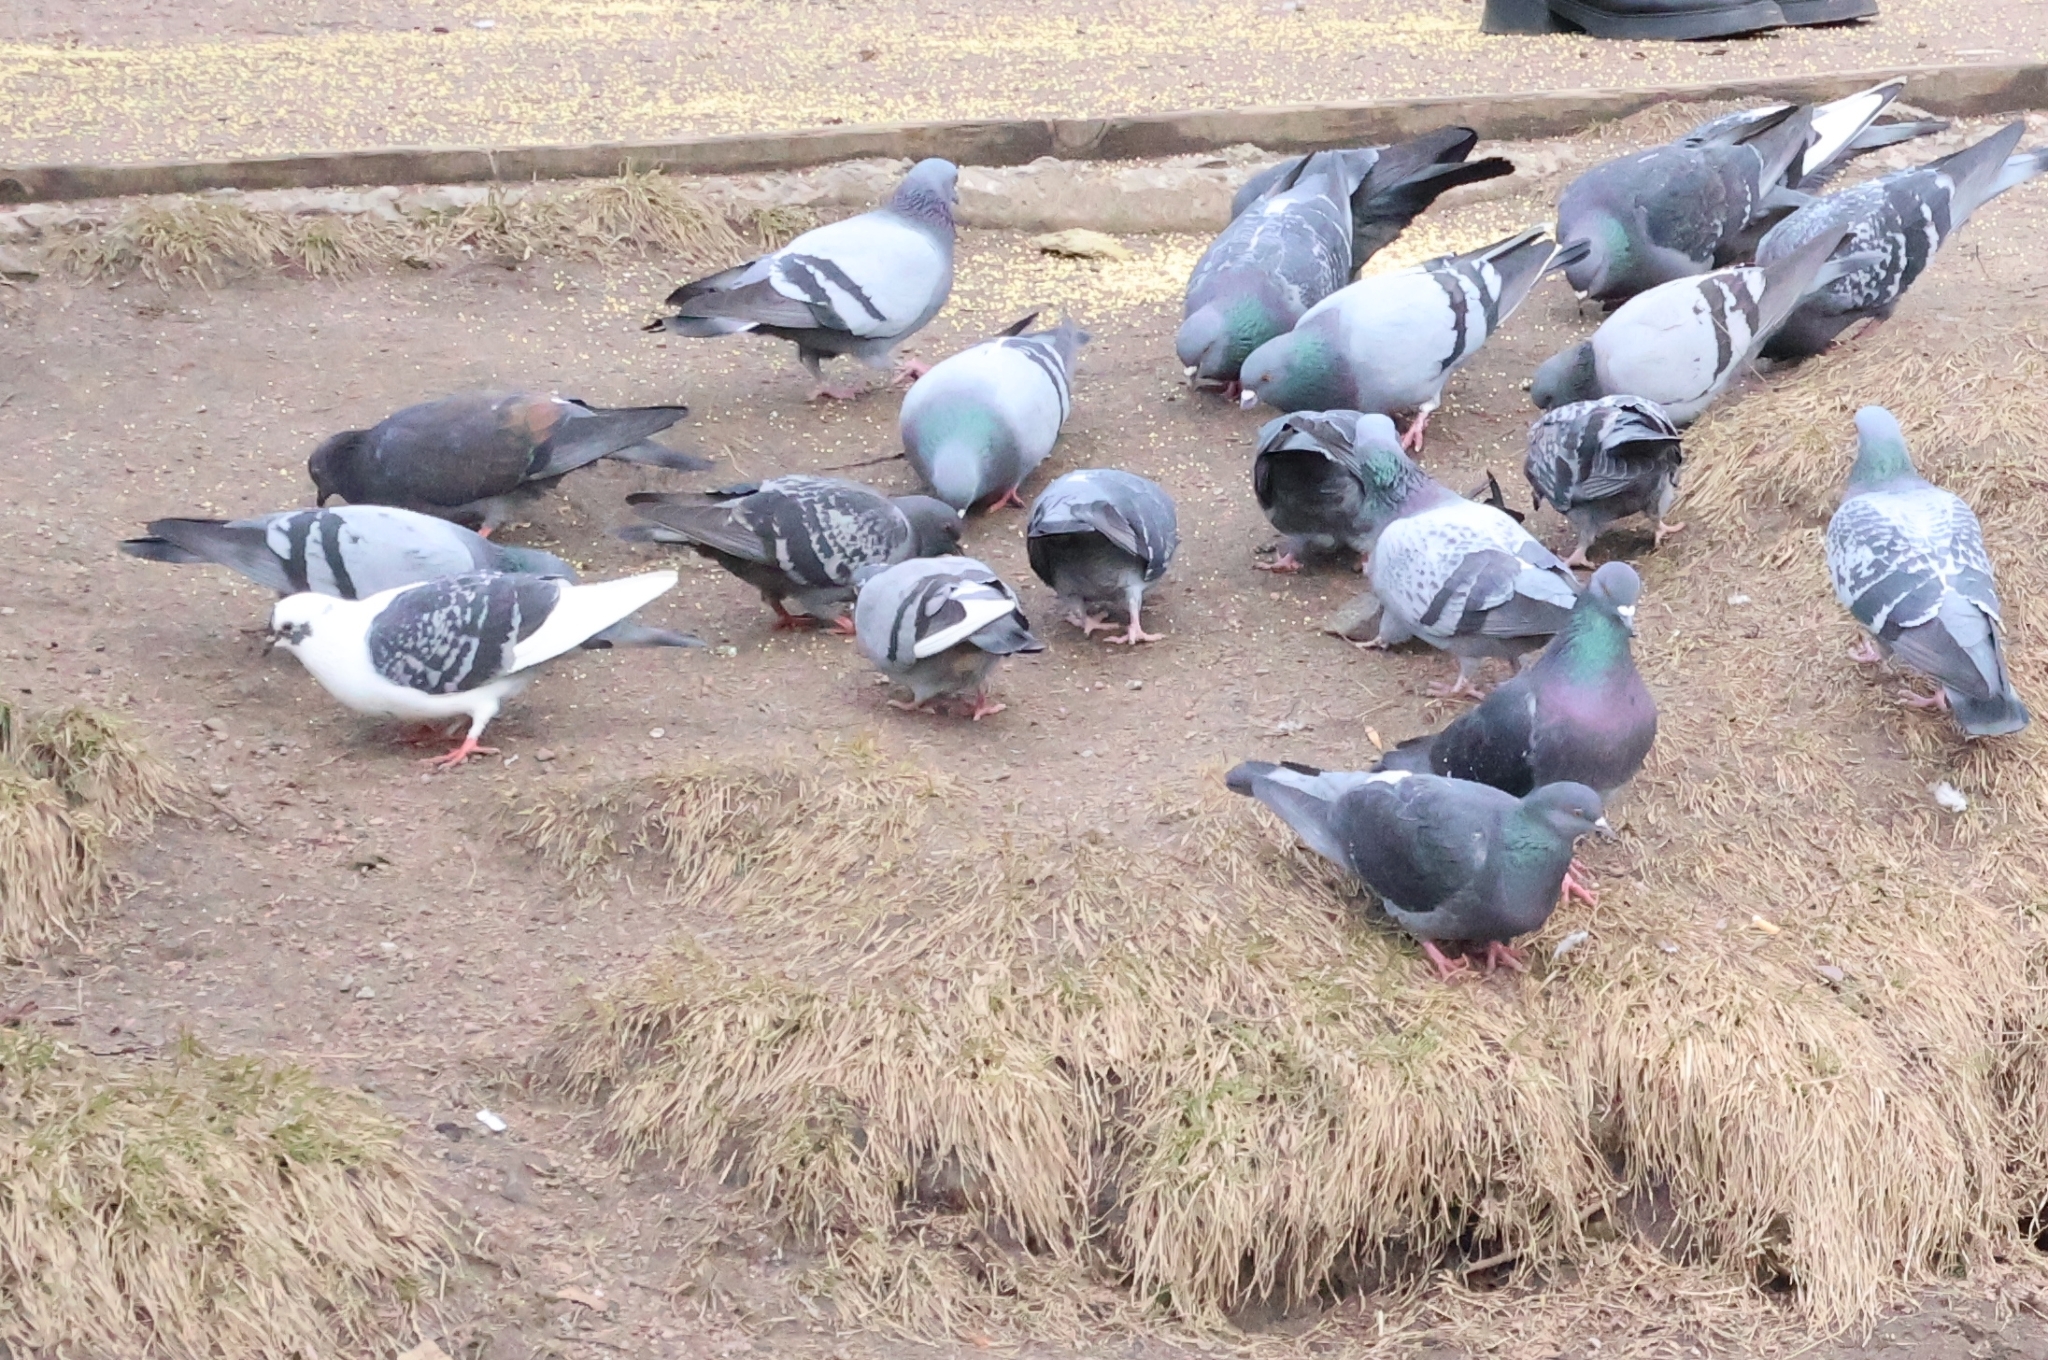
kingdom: Animalia
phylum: Chordata
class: Aves
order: Columbiformes
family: Columbidae
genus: Columba
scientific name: Columba livia
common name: Rock pigeon
